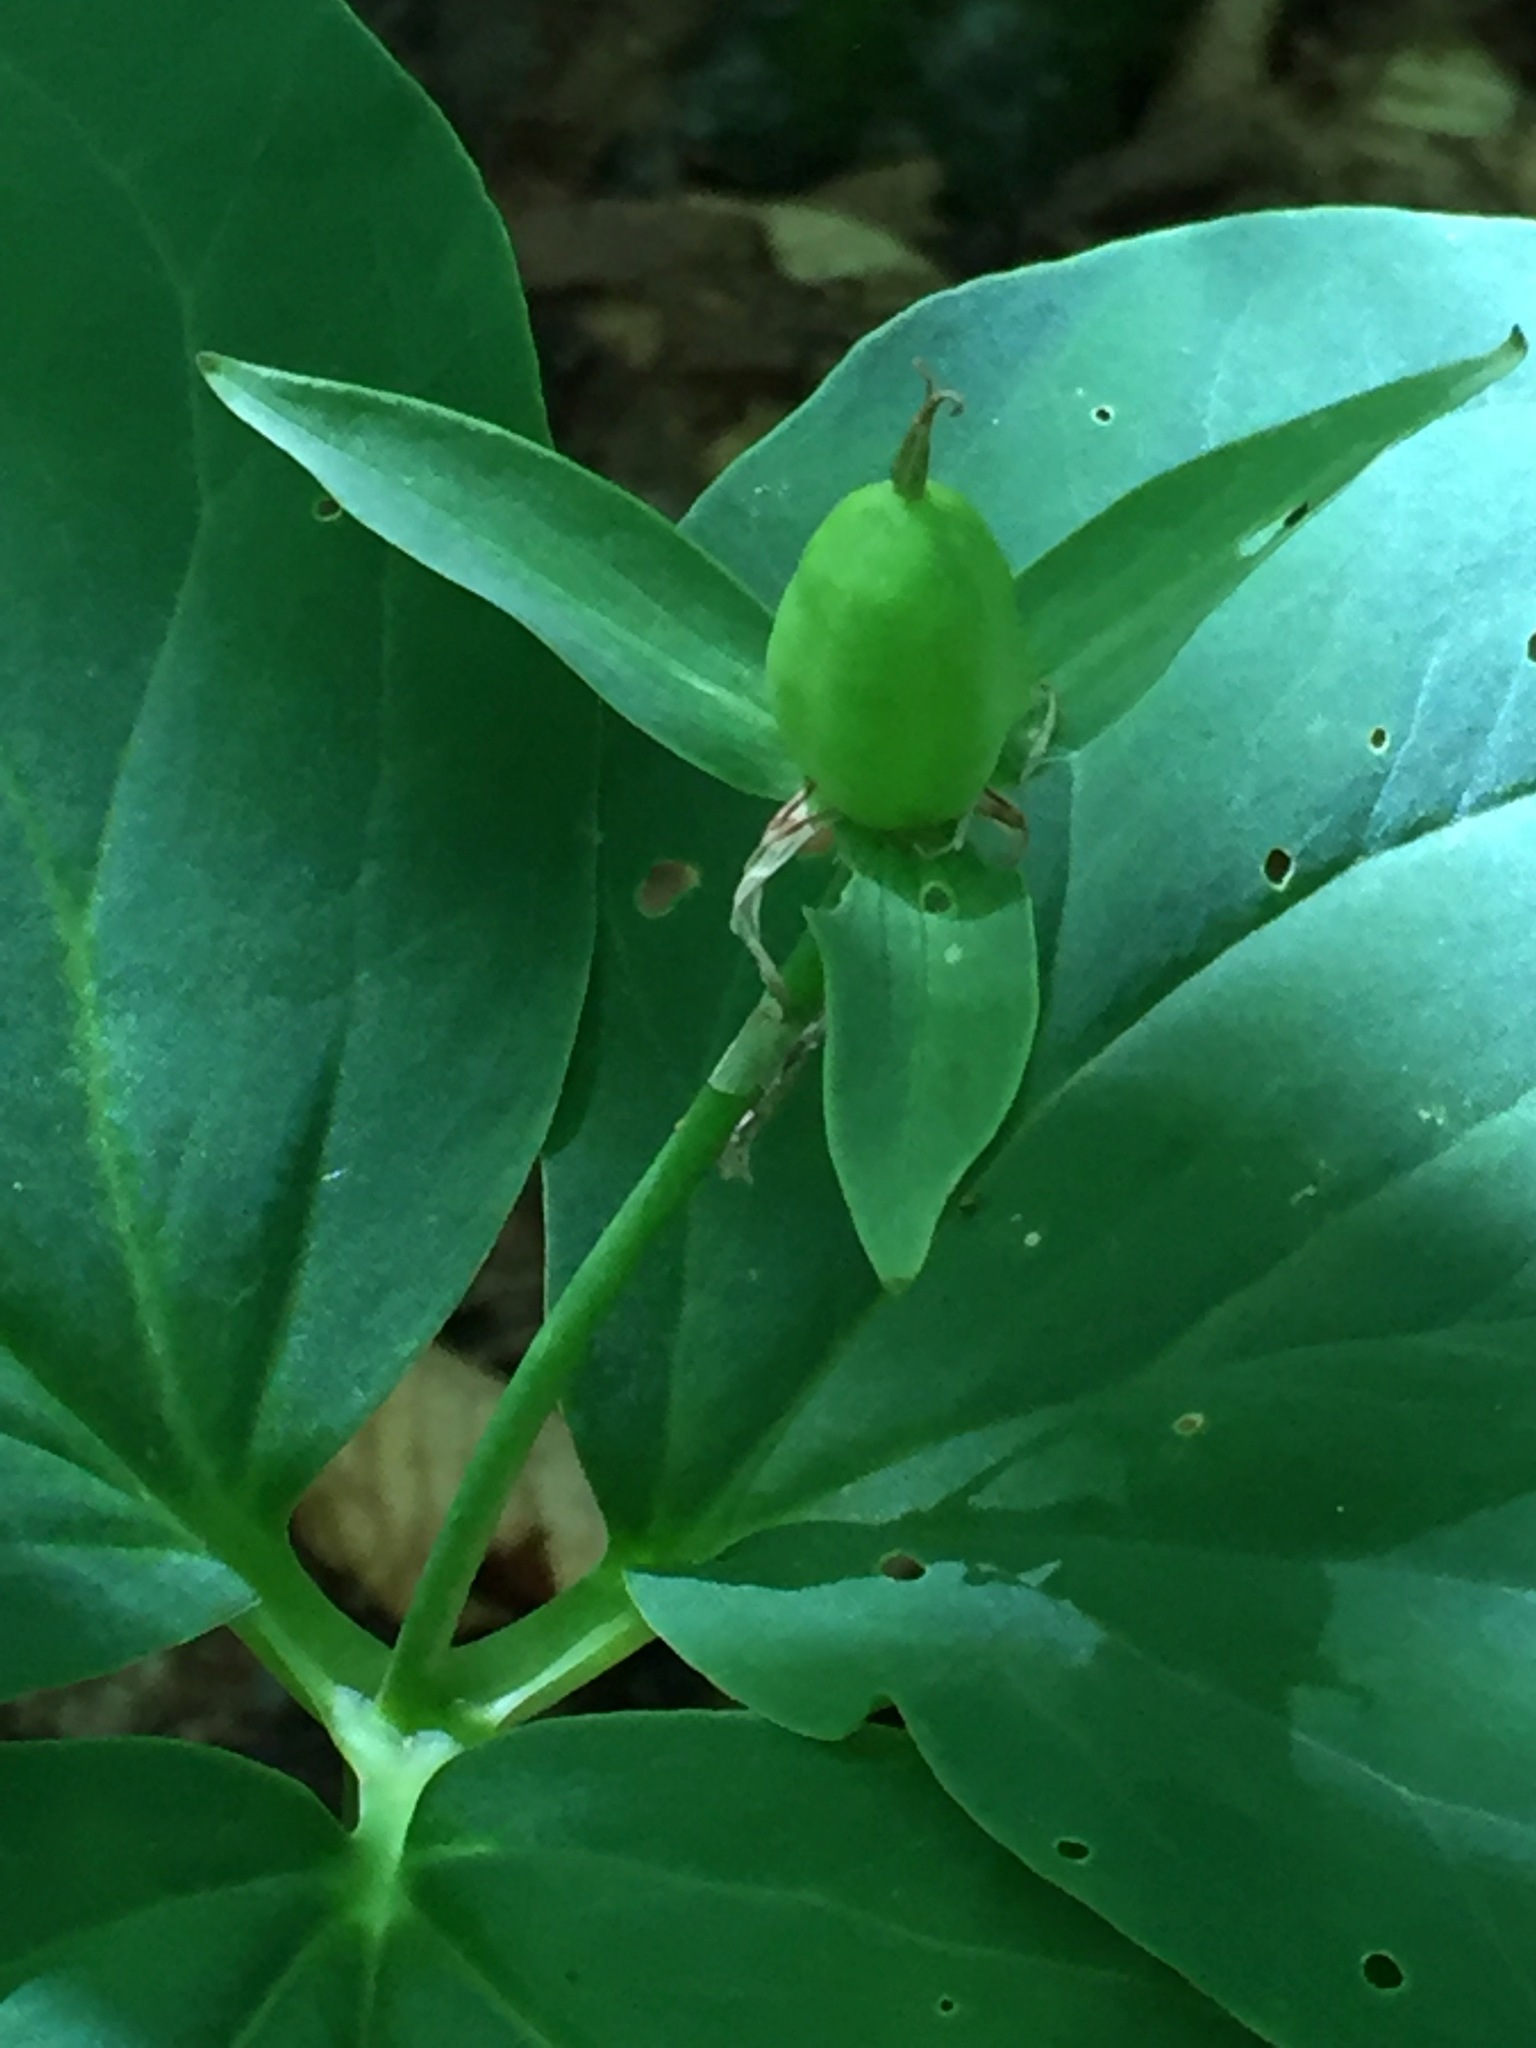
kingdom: Plantae
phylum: Tracheophyta
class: Liliopsida
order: Liliales
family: Melanthiaceae
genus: Trillium
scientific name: Trillium undulatum
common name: Paint trillium
